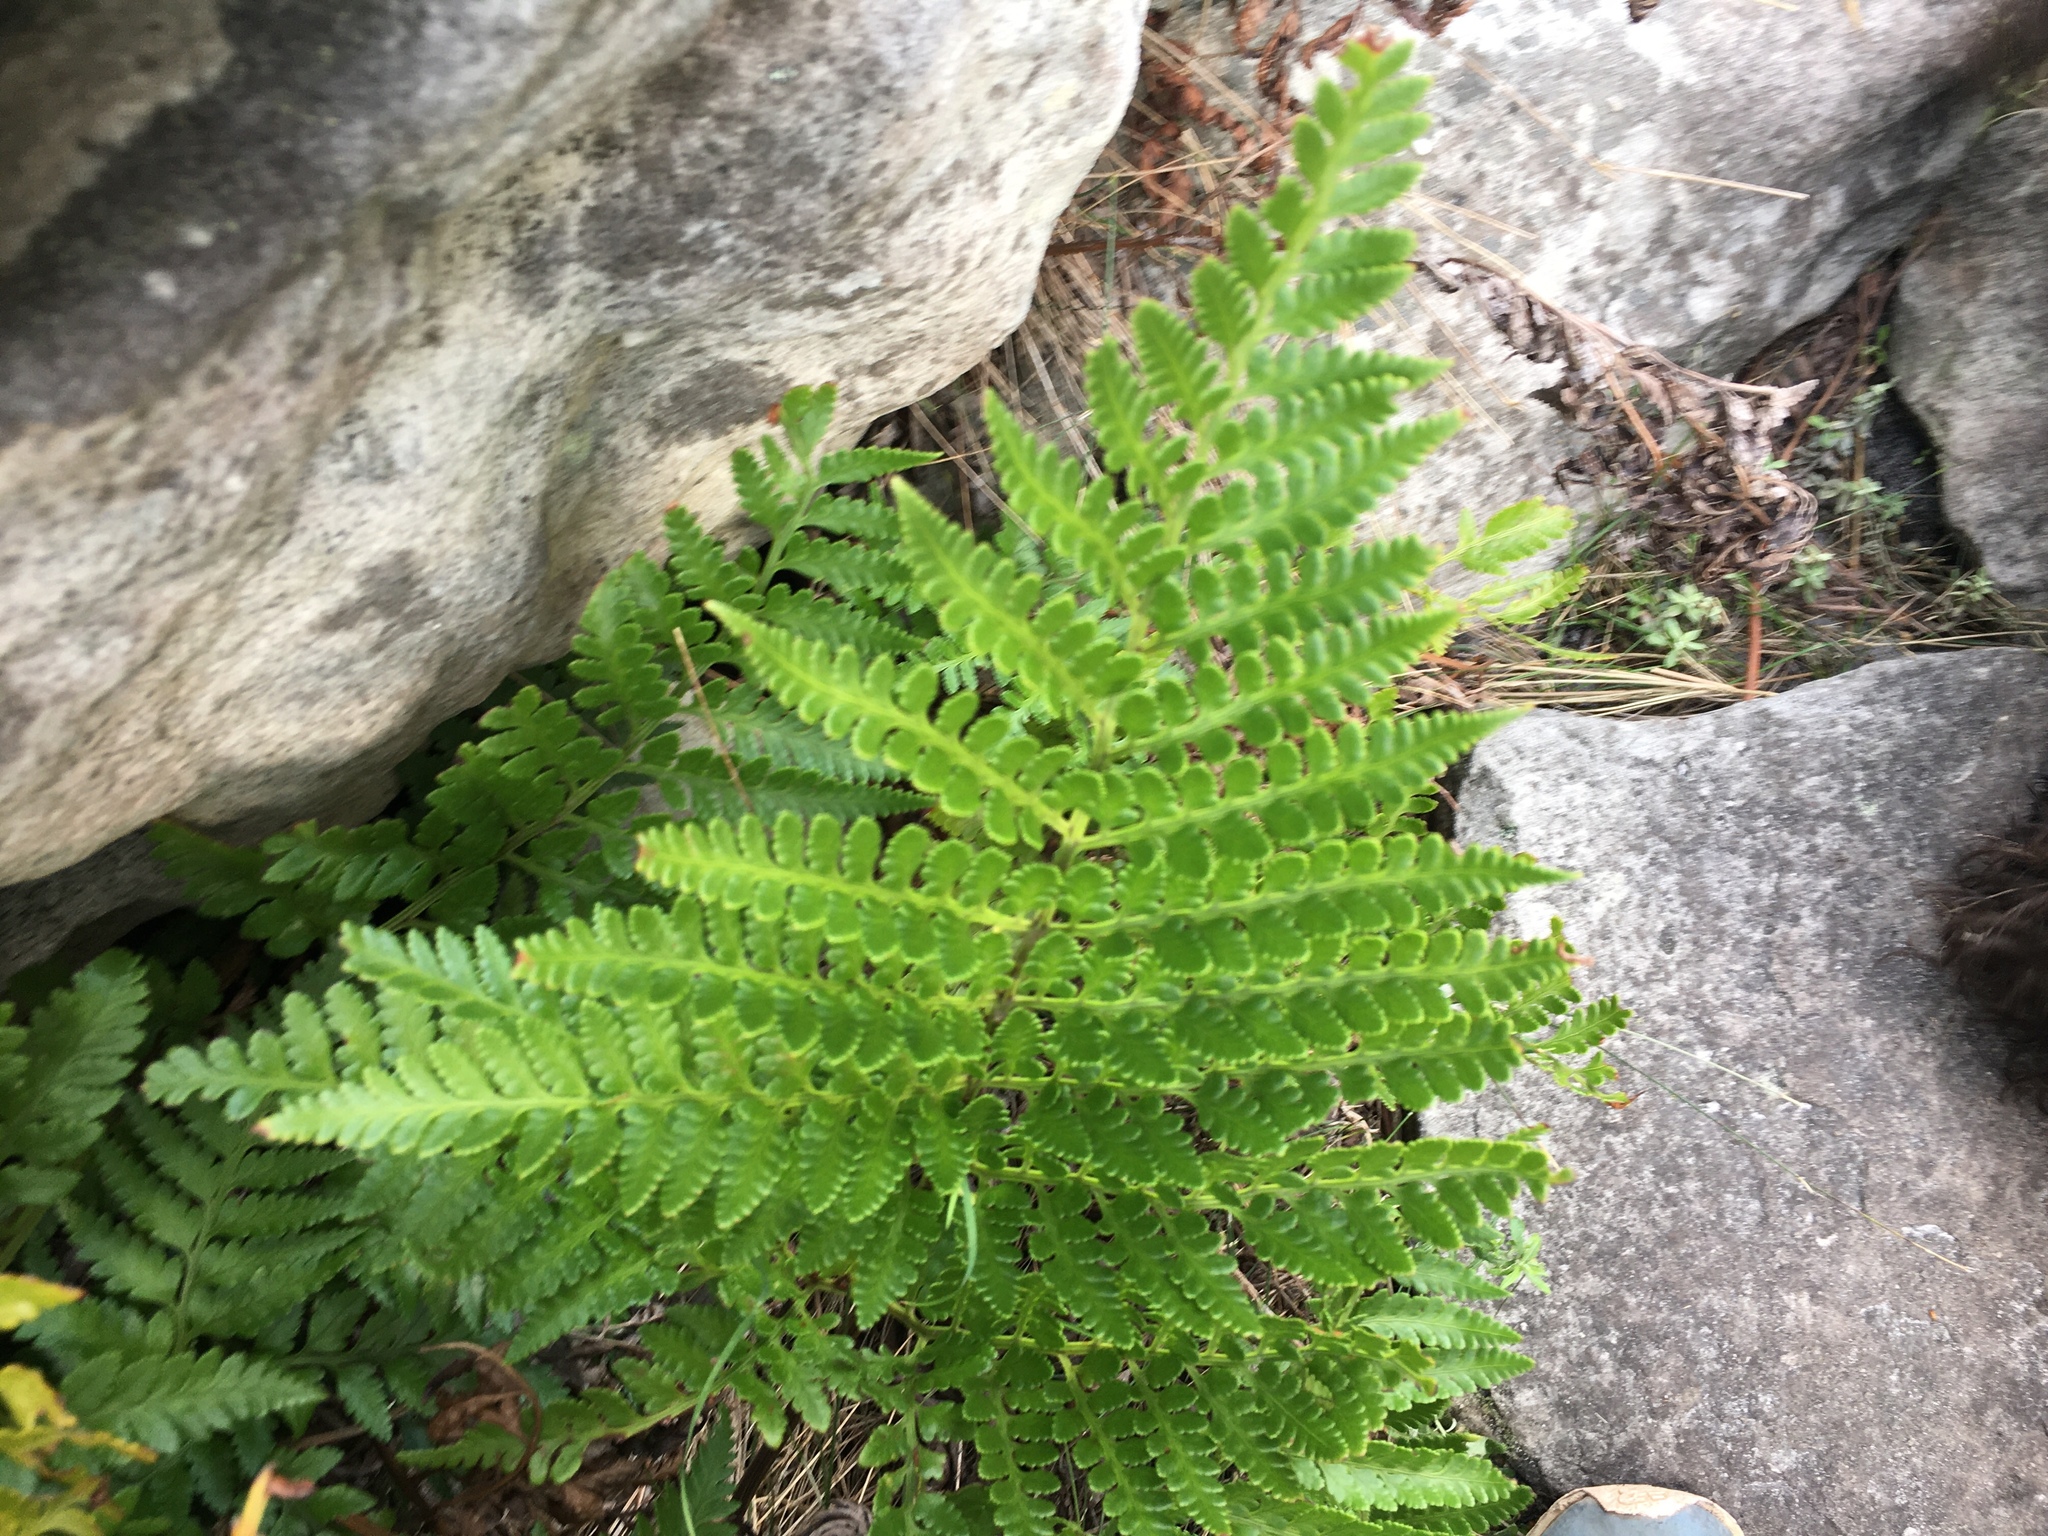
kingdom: Plantae
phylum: Tracheophyta
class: Polypodiopsida
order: Polypodiales
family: Dryopteridaceae
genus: Rumohra
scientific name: Rumohra adiantiformis
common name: Leather fern
